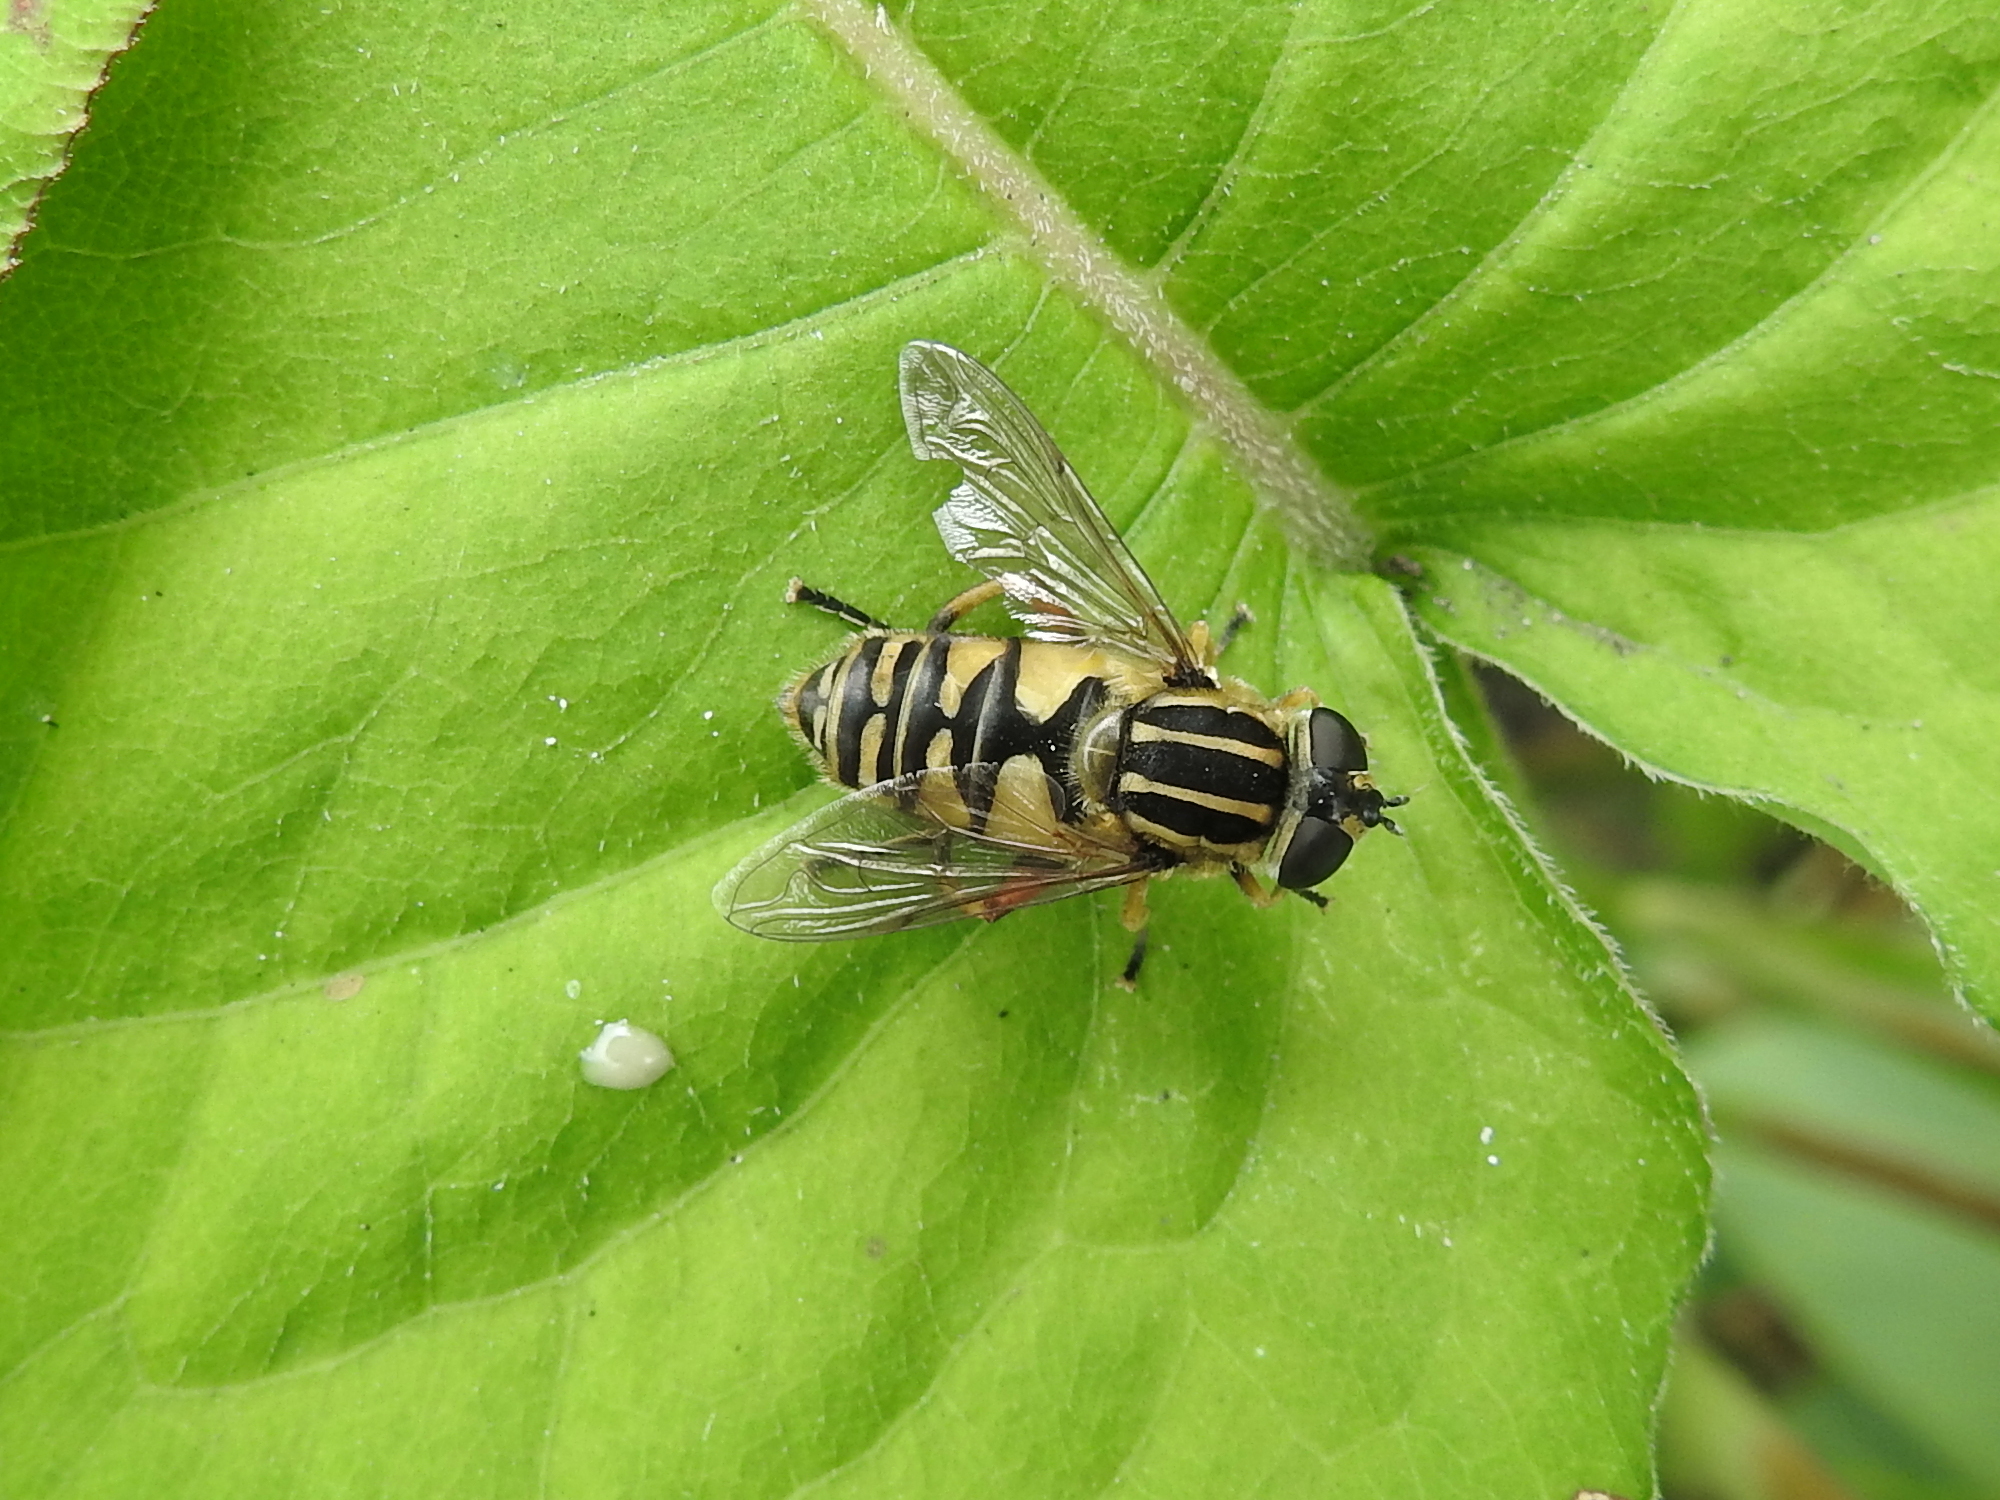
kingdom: Animalia
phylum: Arthropoda
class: Insecta
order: Diptera
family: Syrphidae
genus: Helophilus
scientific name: Helophilus pendulus
